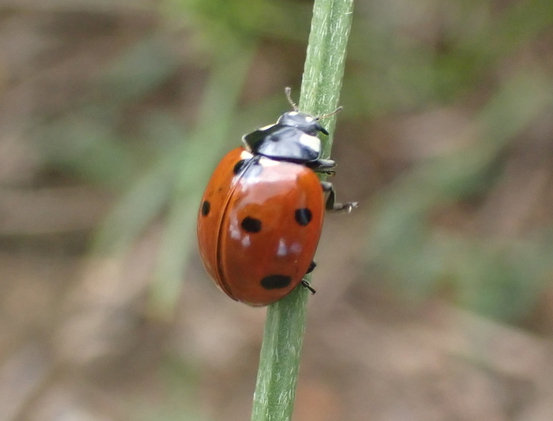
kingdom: Animalia
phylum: Arthropoda
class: Insecta
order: Coleoptera
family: Coccinellidae
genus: Coccinella
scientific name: Coccinella septempunctata
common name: Sevenspotted lady beetle
